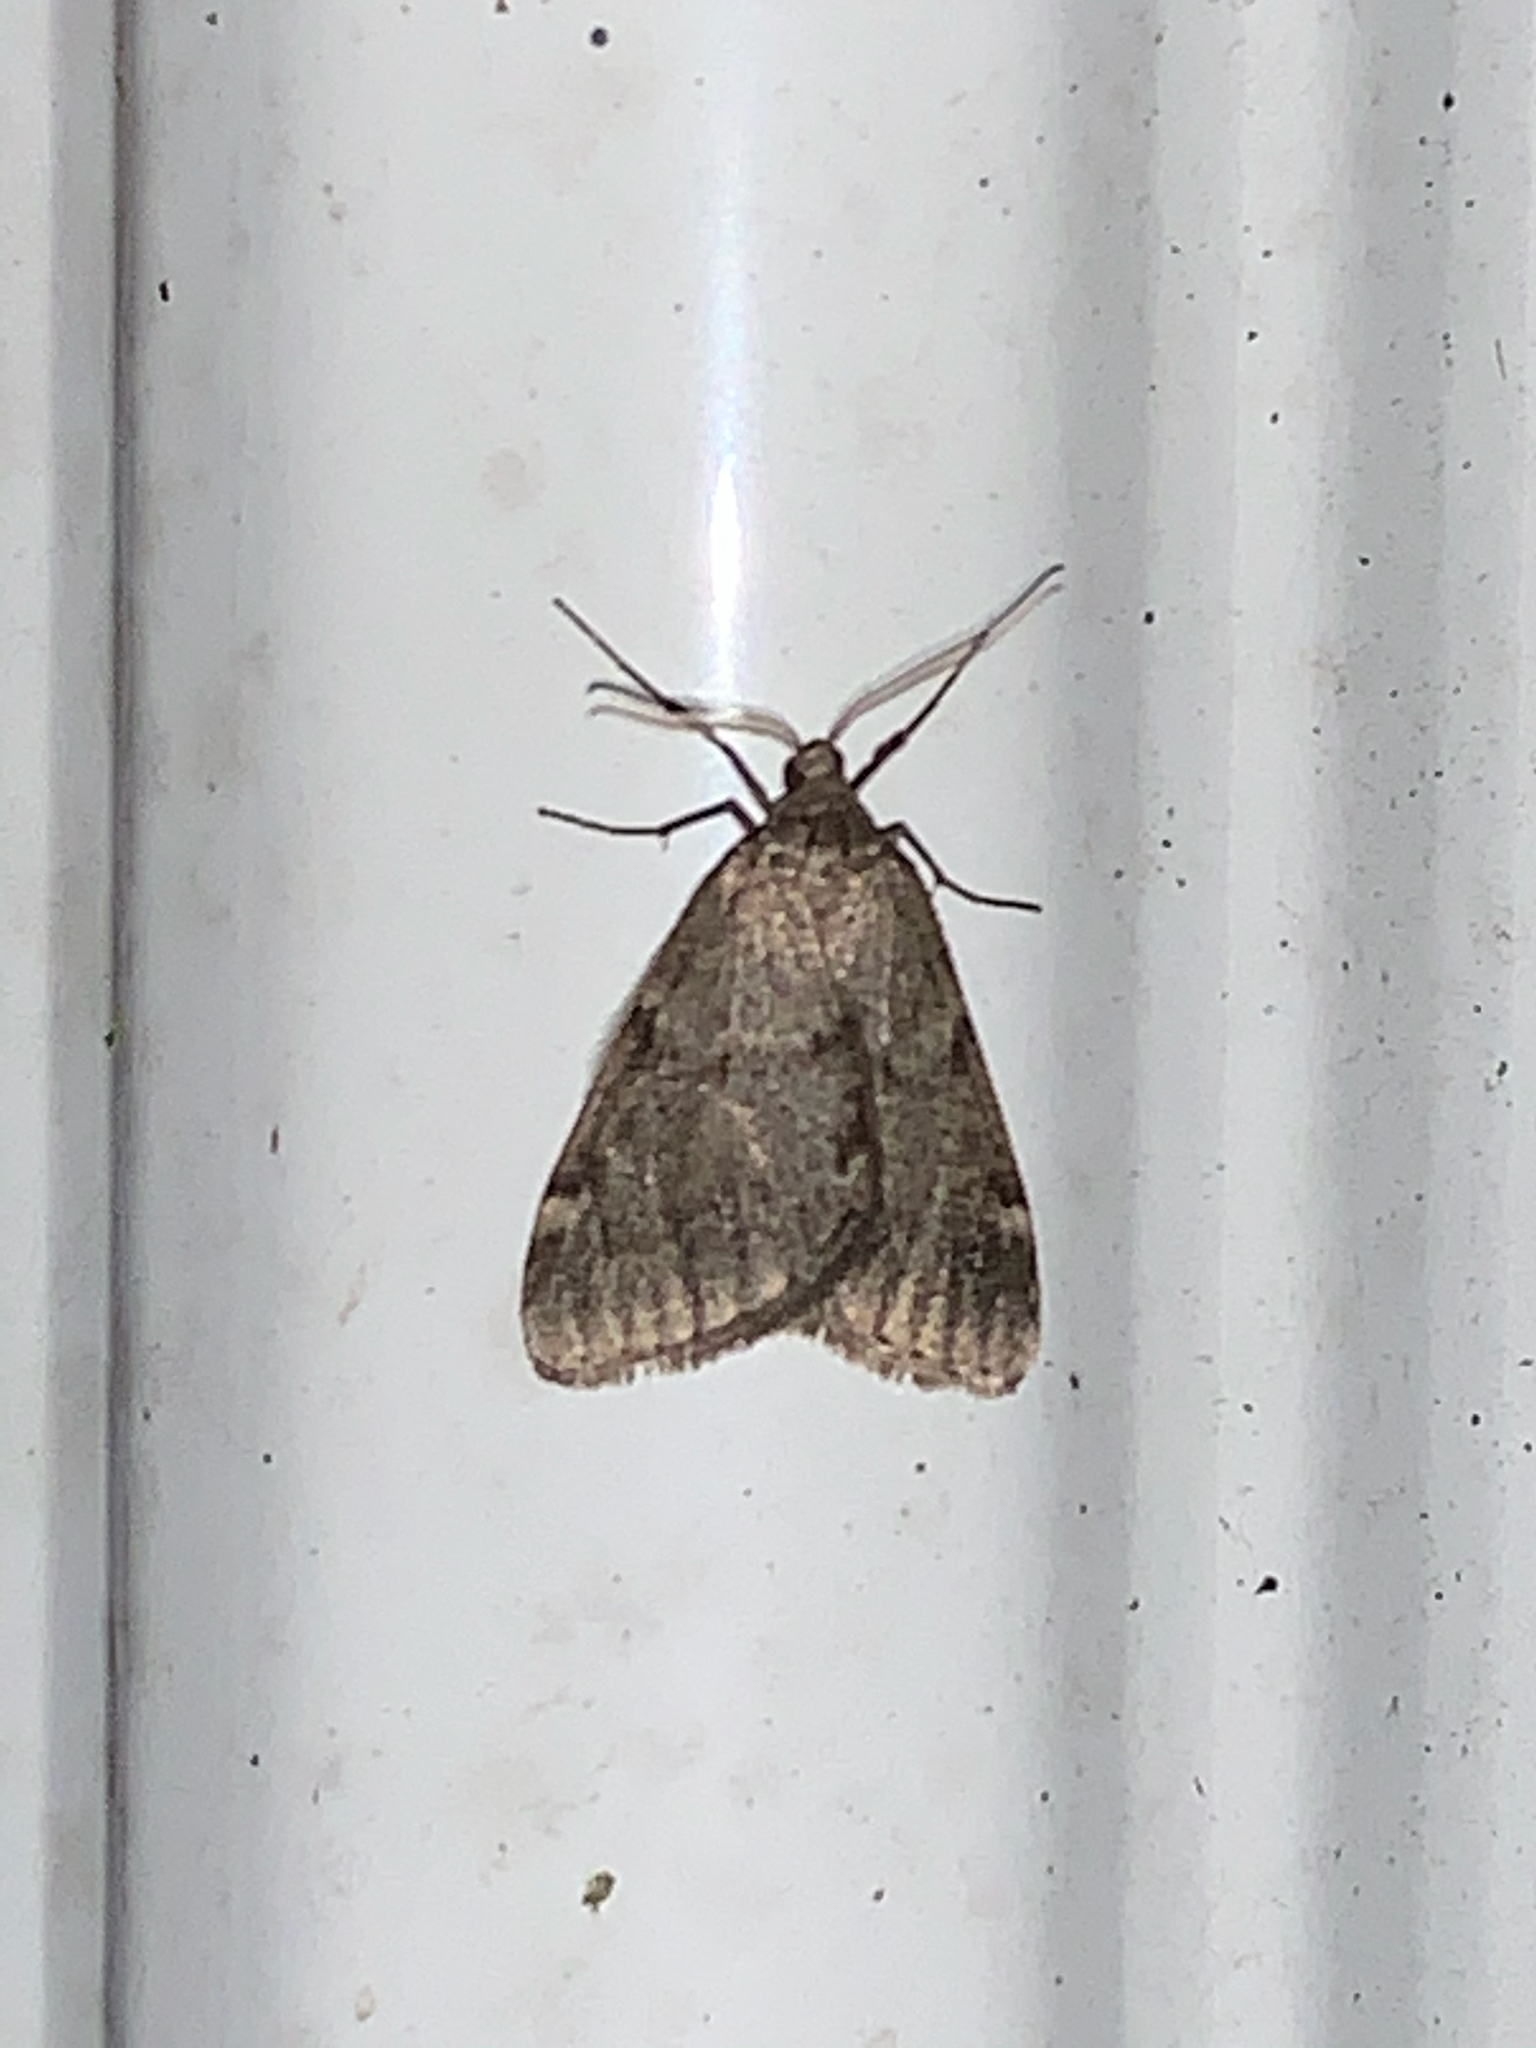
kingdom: Animalia
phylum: Arthropoda
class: Insecta
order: Lepidoptera
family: Geometridae
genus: Alsophila
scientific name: Alsophila pometaria
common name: Fall cankerworm
